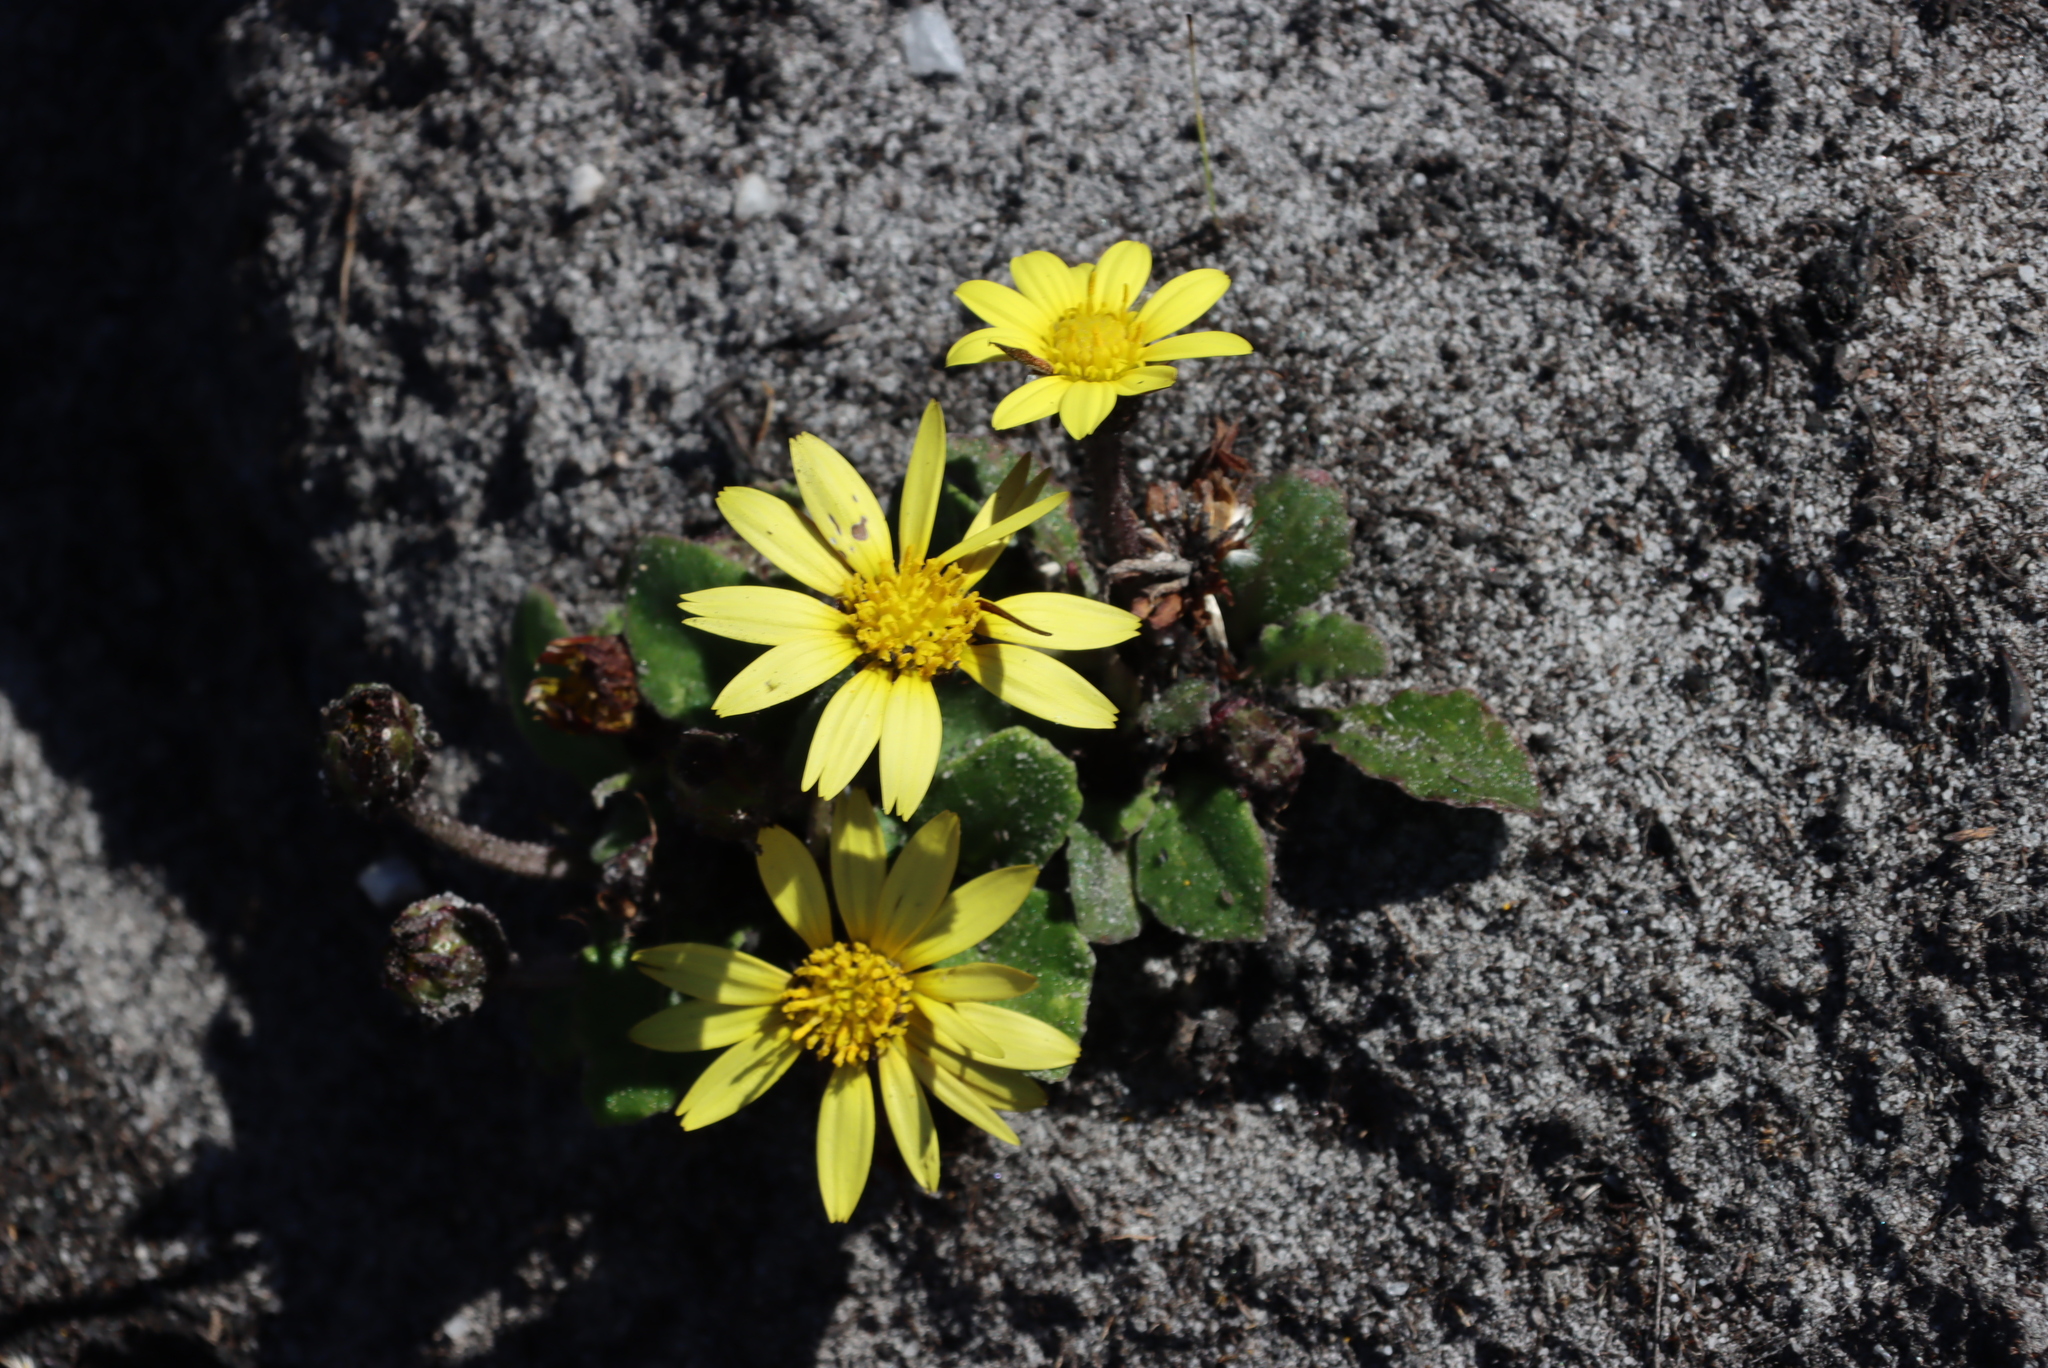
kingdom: Plantae
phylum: Tracheophyta
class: Magnoliopsida
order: Asterales
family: Asteraceae
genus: Haplocarpha
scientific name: Haplocarpha lanata
